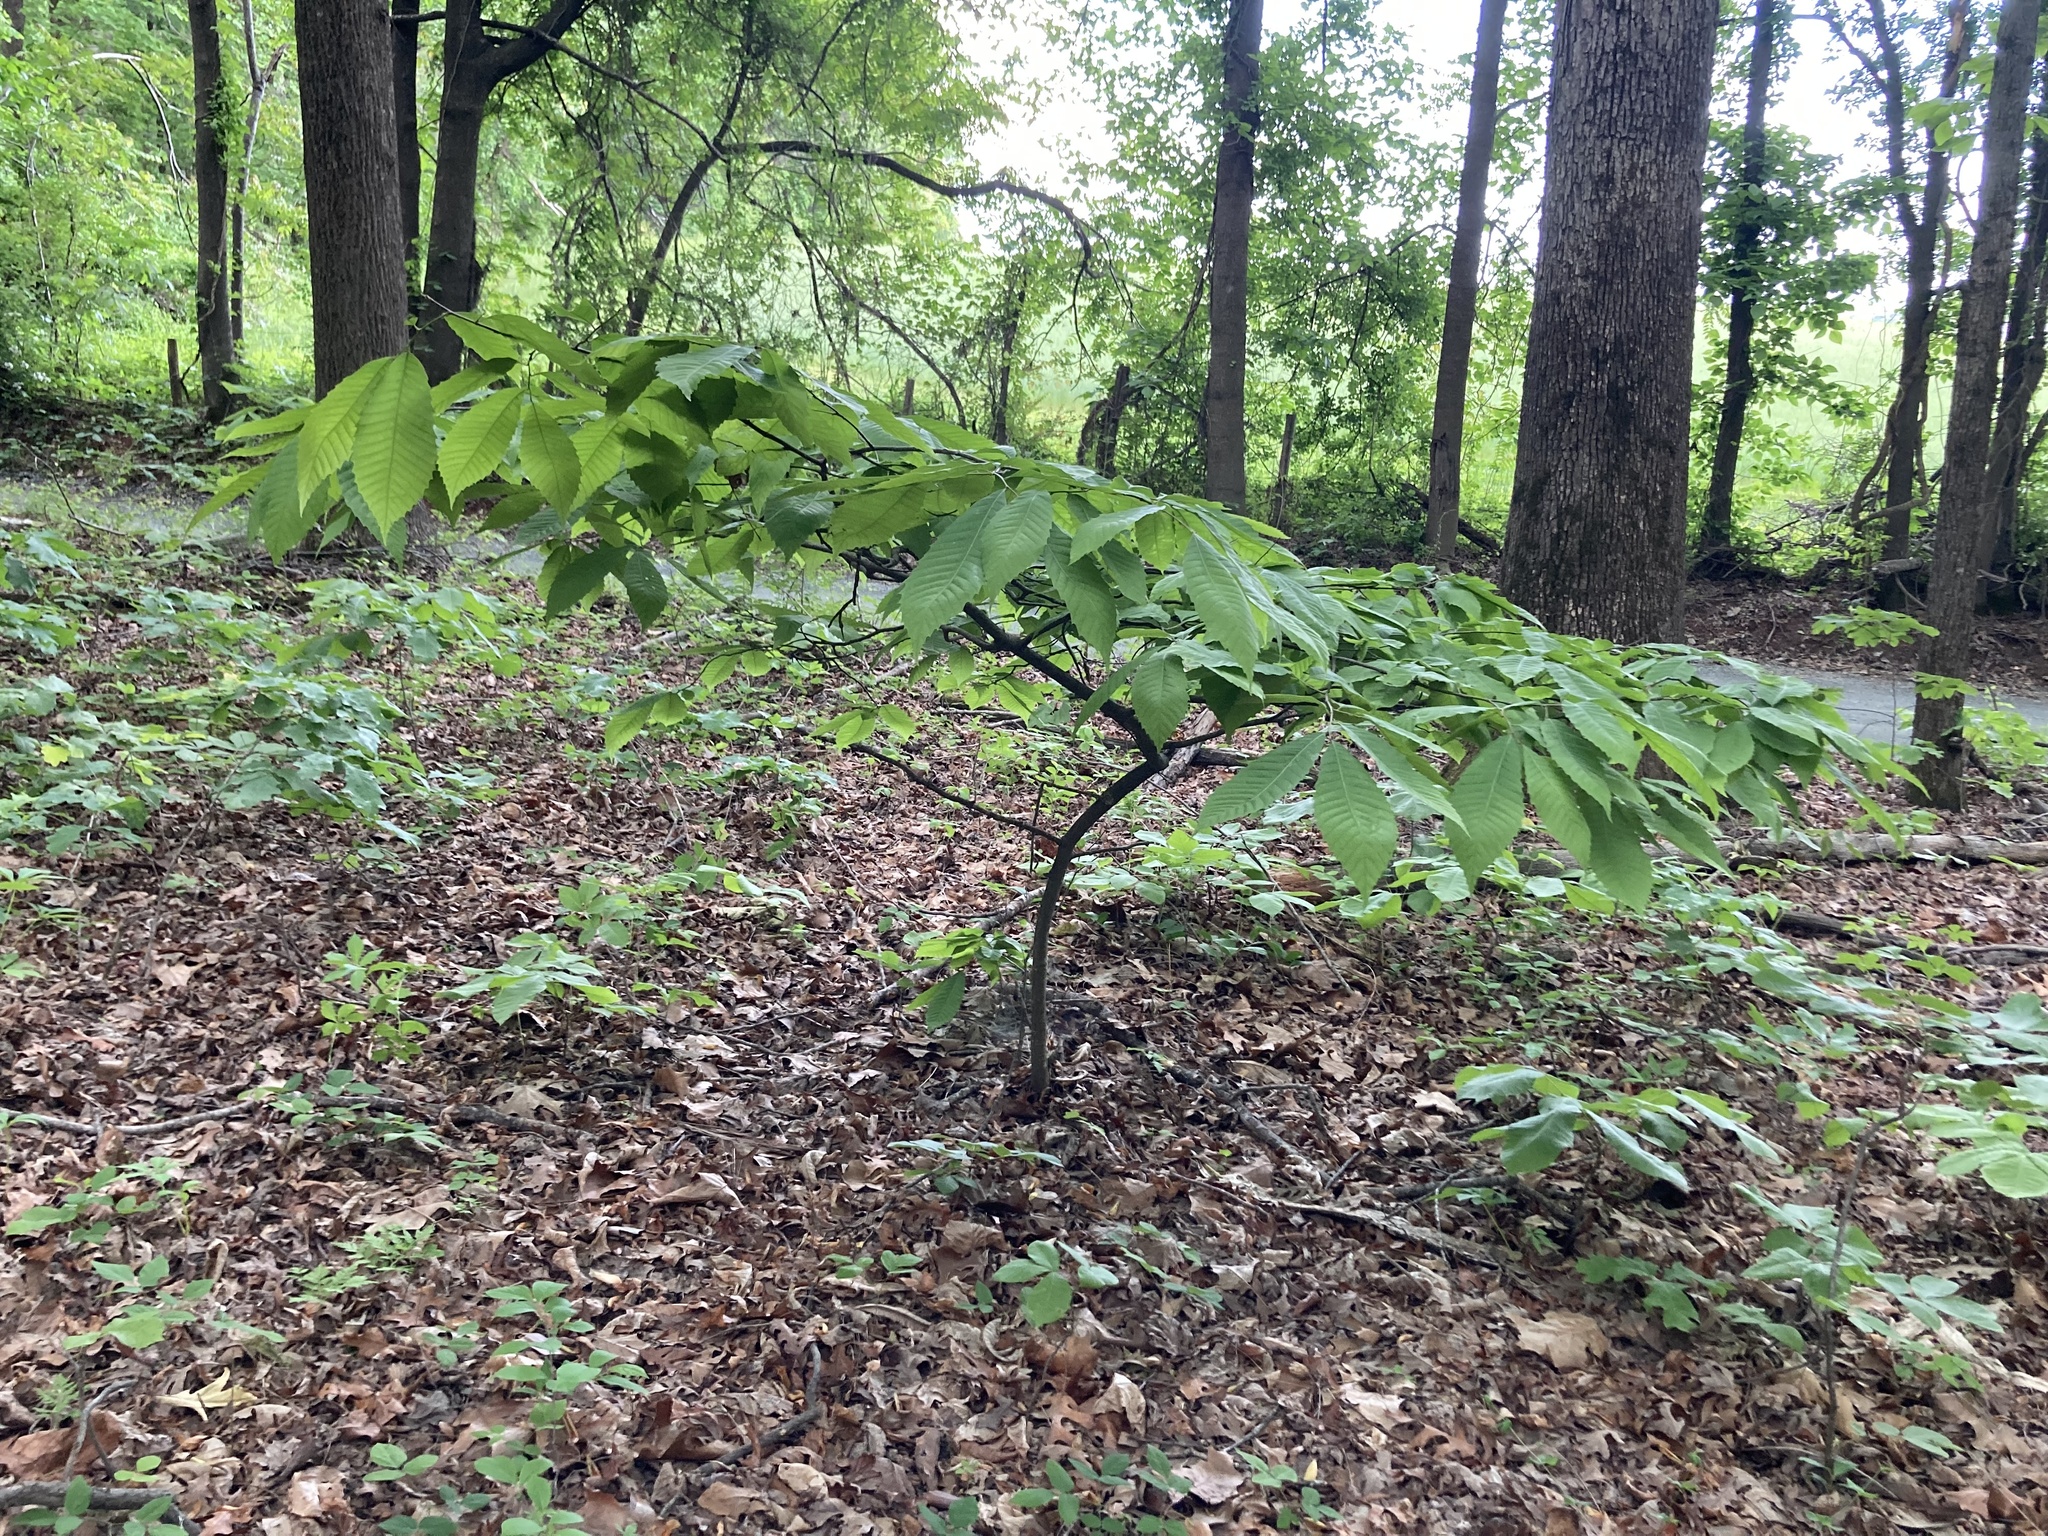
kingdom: Plantae
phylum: Tracheophyta
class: Magnoliopsida
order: Fagales
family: Fagaceae
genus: Castanea
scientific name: Castanea dentata
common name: American chestnut
